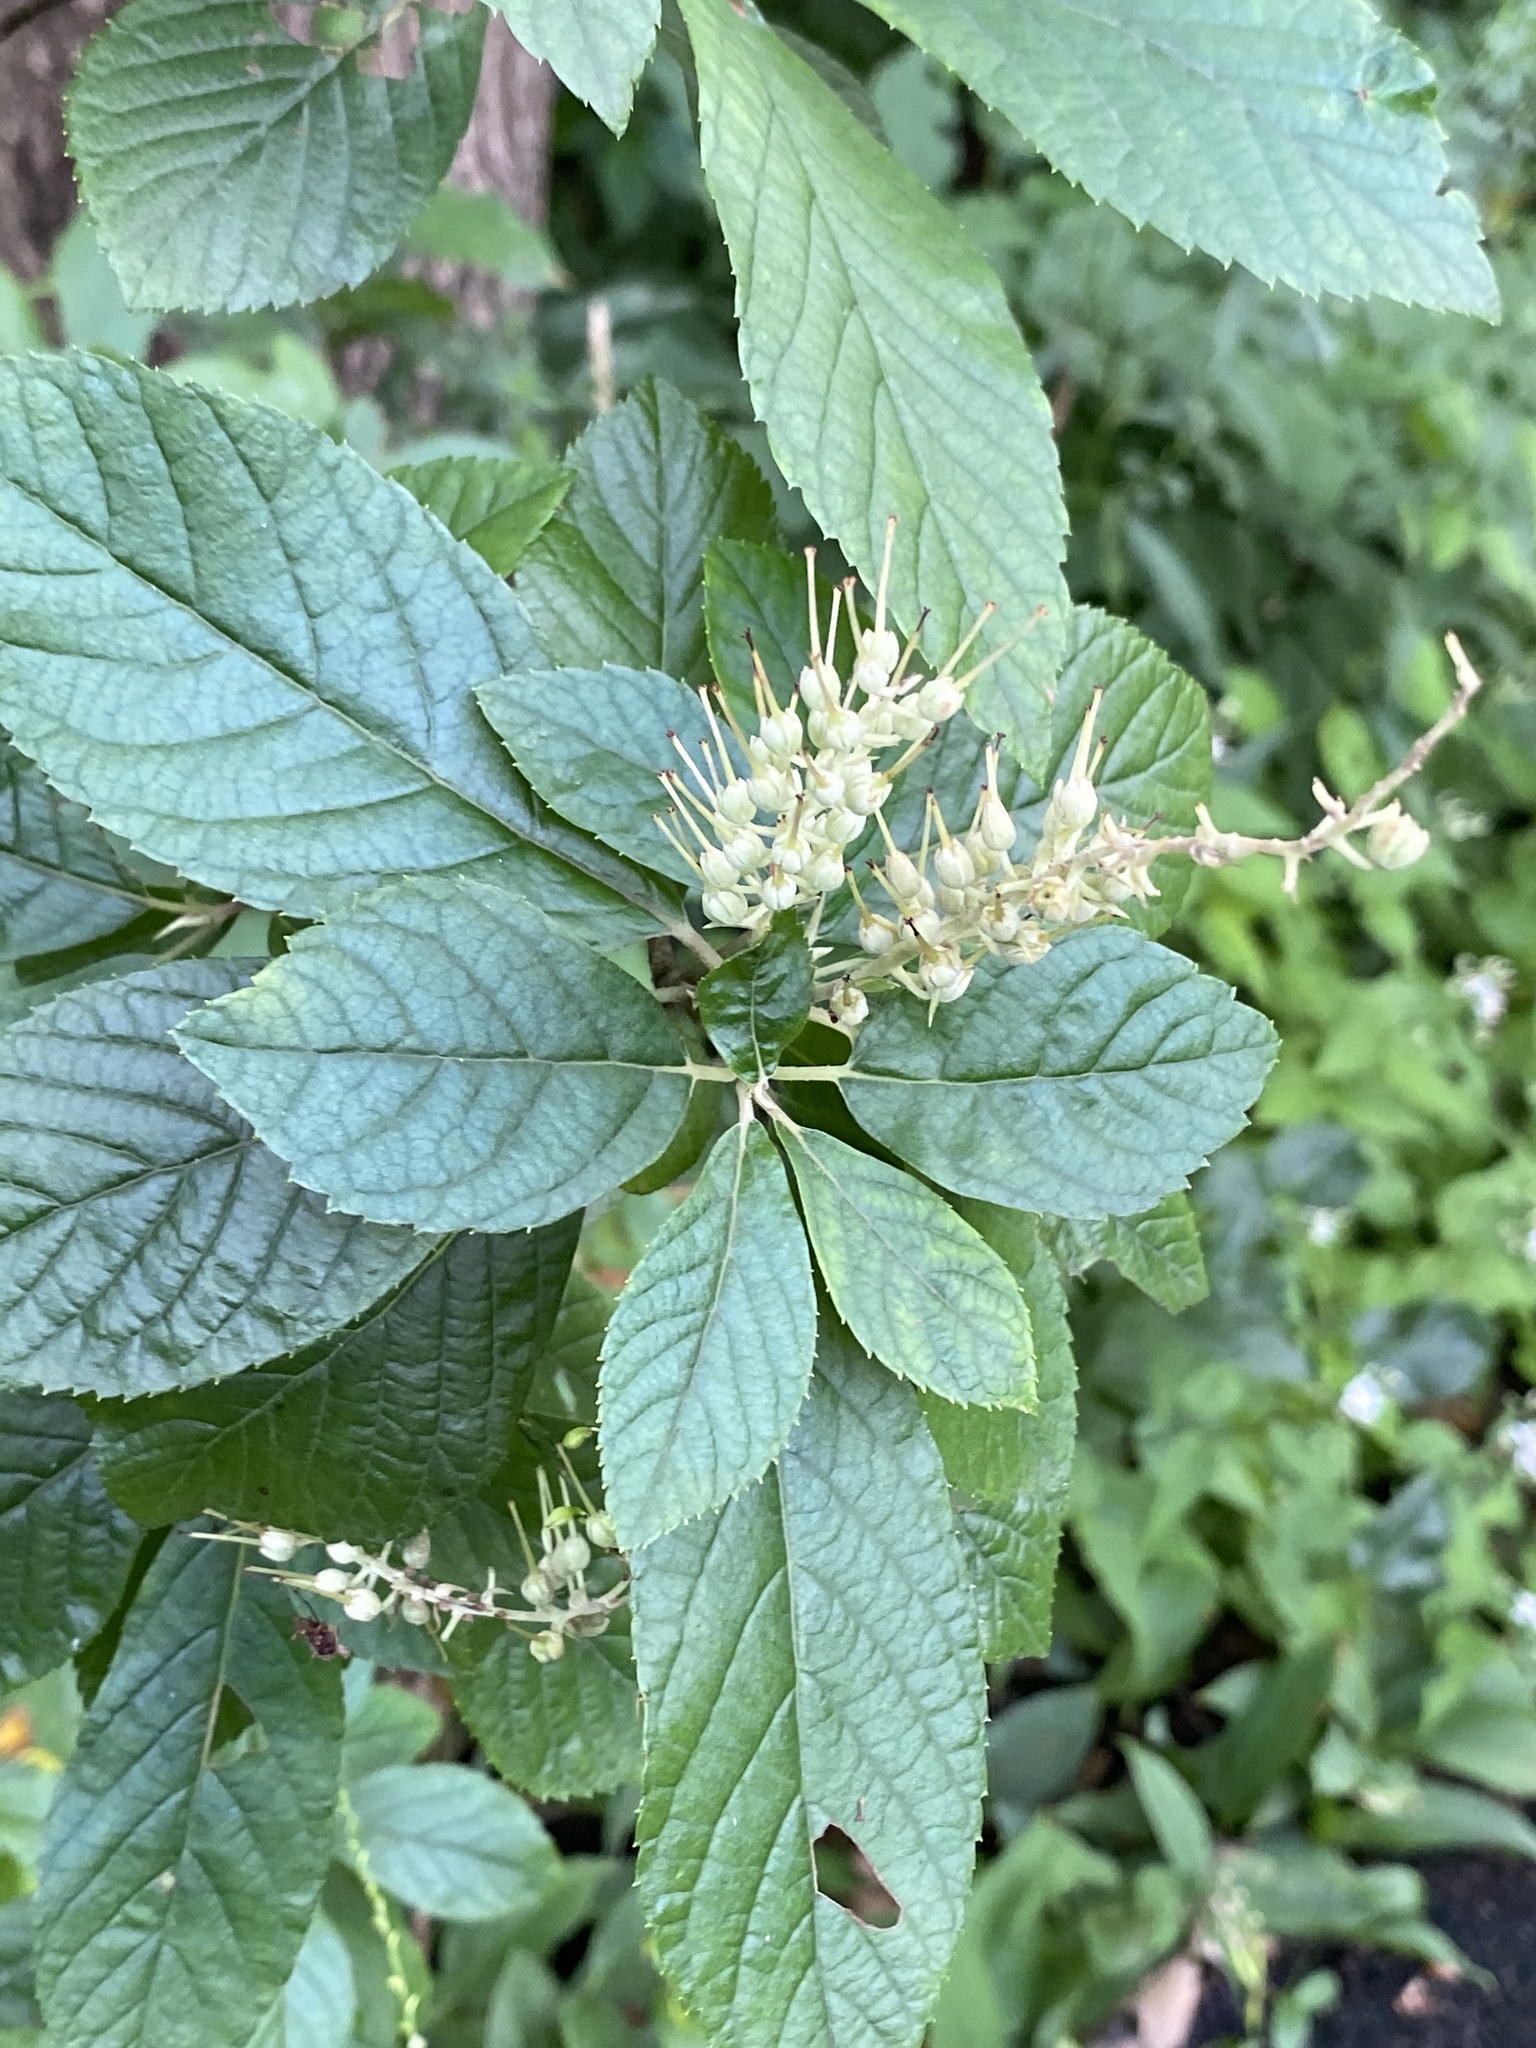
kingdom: Plantae
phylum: Tracheophyta
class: Magnoliopsida
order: Ericales
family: Clethraceae
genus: Clethra
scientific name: Clethra alnifolia
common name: Sweet pepperbush
